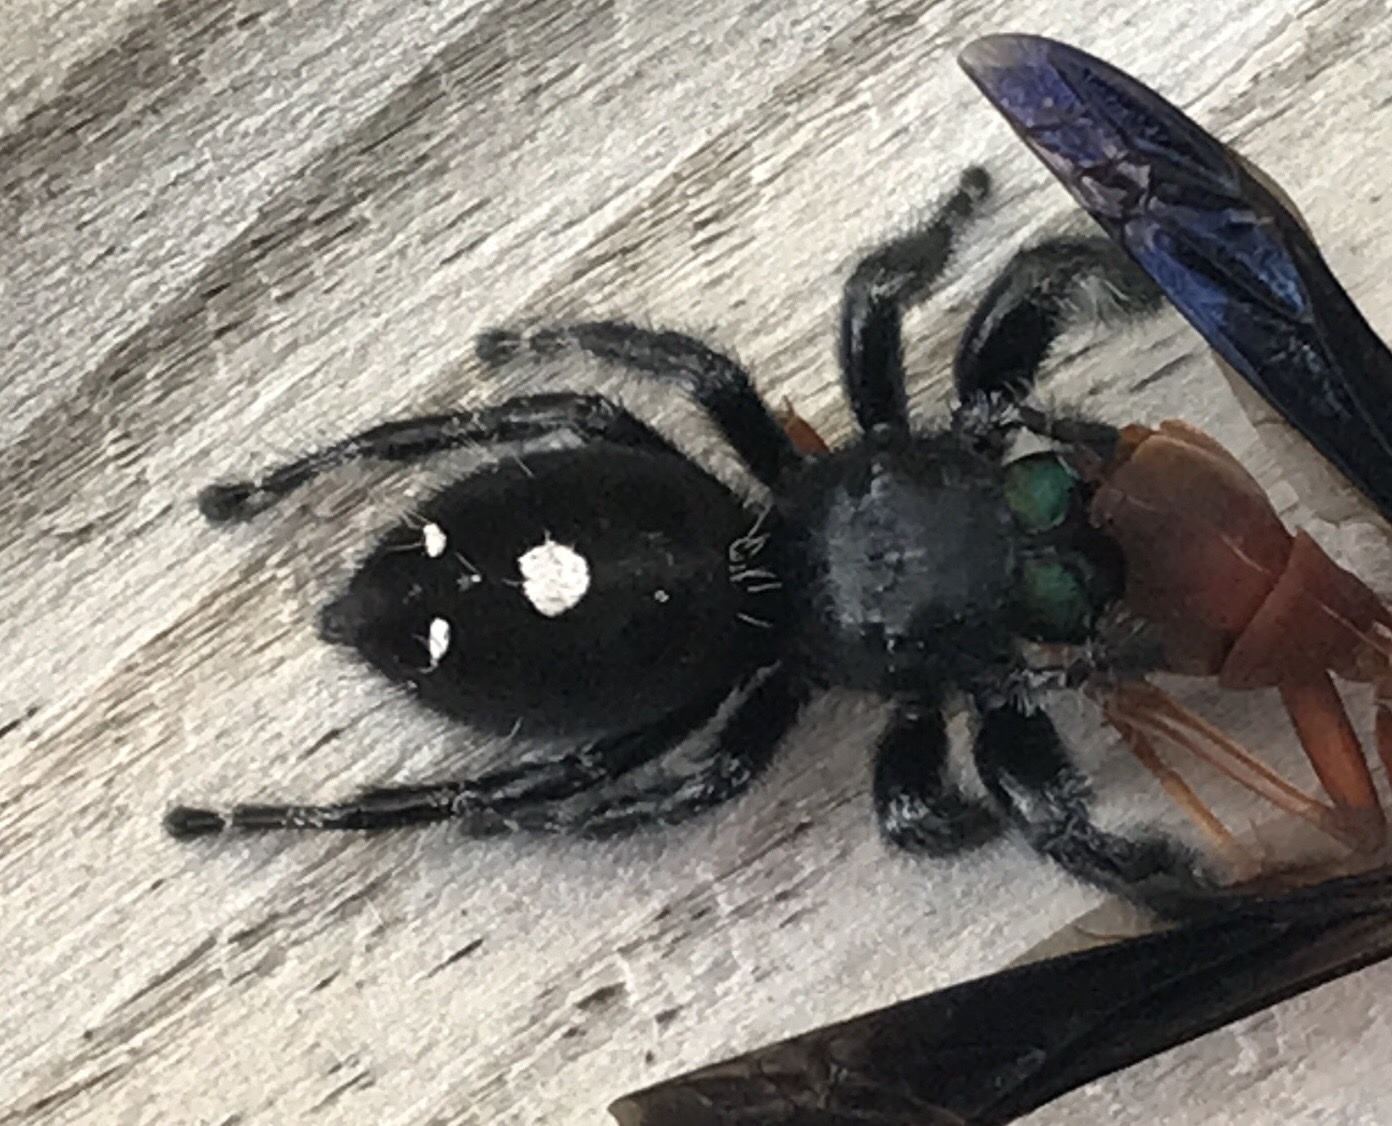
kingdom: Animalia
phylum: Arthropoda
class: Arachnida
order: Araneae
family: Salticidae
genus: Phidippus
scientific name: Phidippus audax
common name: Bold jumper
